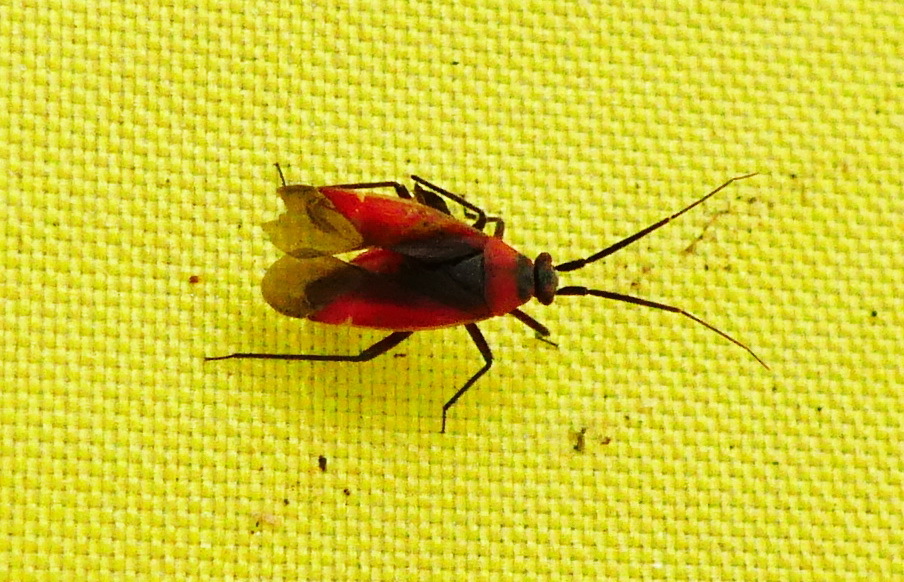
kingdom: Animalia
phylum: Arthropoda
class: Insecta
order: Hemiptera
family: Miridae
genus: Lopidea
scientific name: Lopidea instabilis
